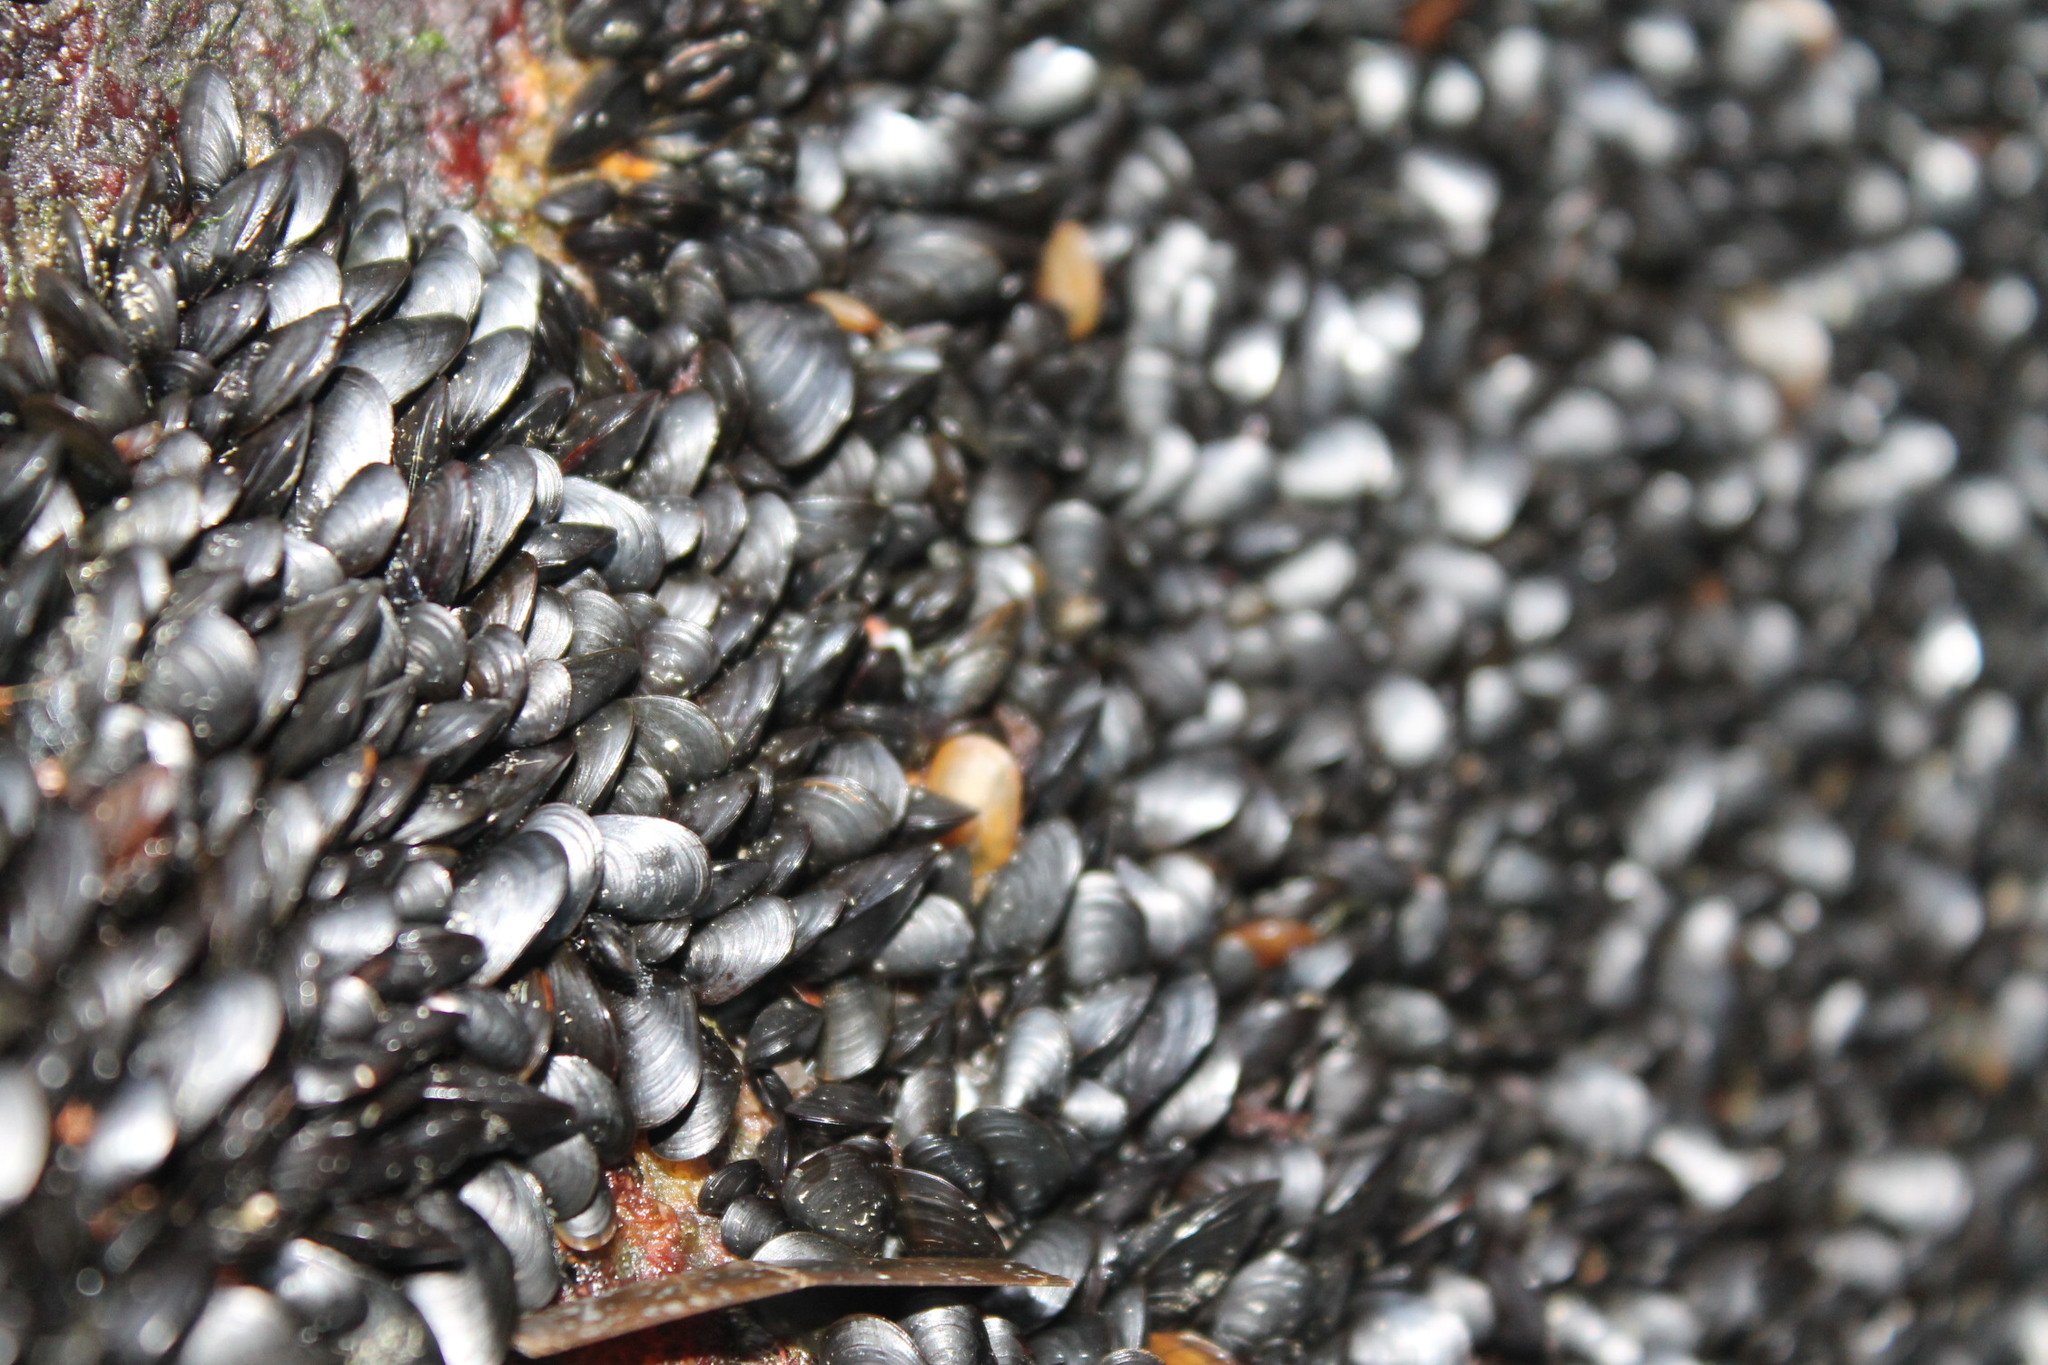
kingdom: Animalia
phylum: Mollusca
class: Bivalvia
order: Mytilida
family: Mytilidae
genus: Mytilus
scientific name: Mytilus edulis
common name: Blue mussel
